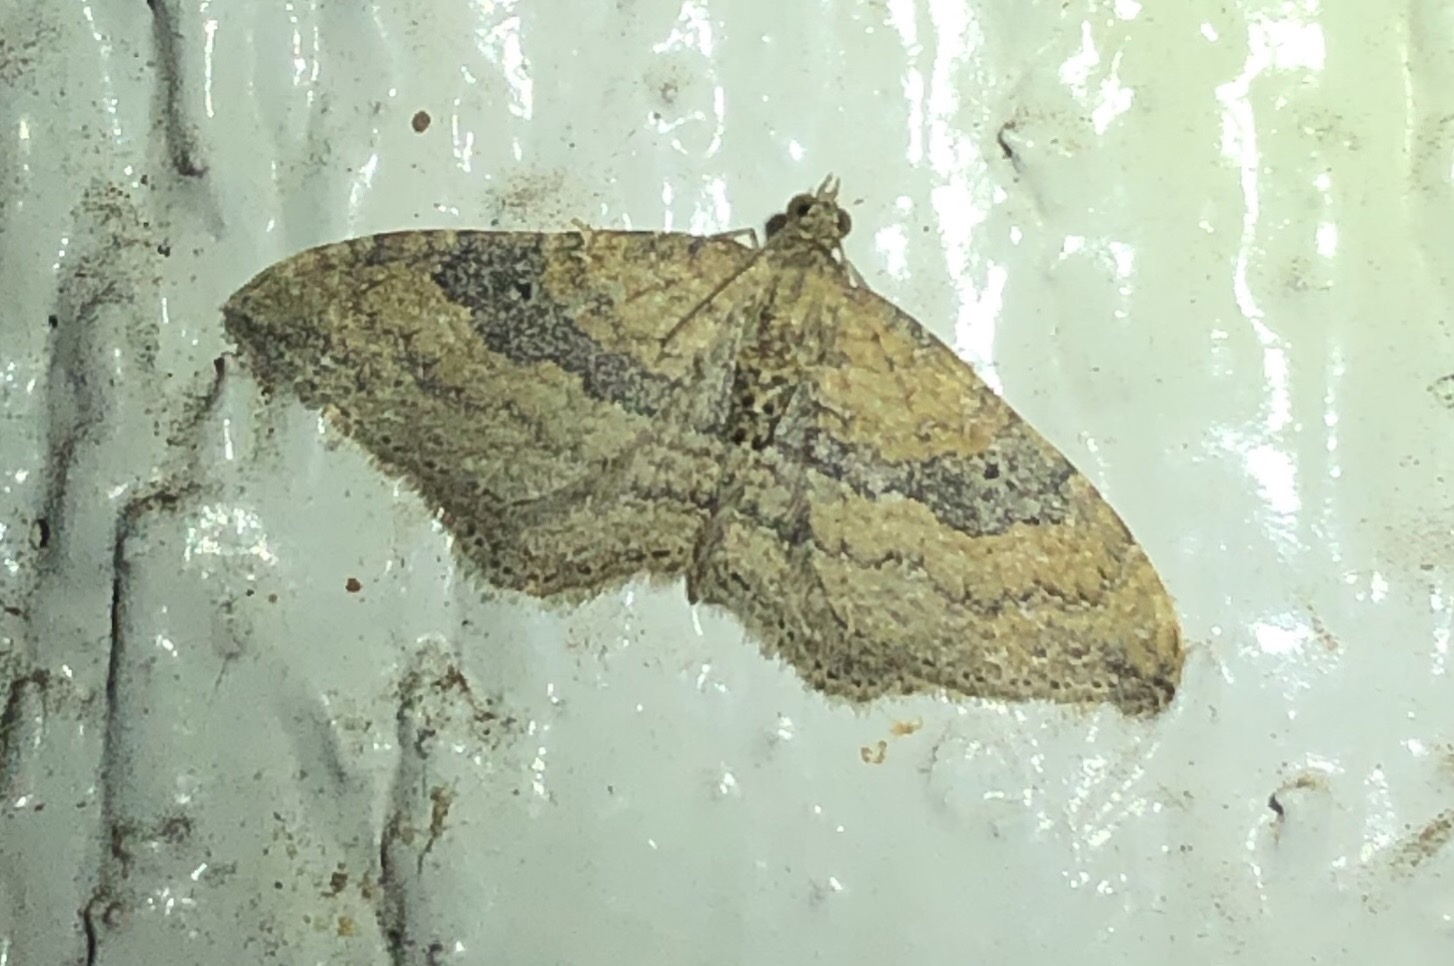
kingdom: Animalia
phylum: Arthropoda
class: Insecta
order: Lepidoptera
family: Geometridae
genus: Orthonama
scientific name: Orthonama obstipata
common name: The gem
